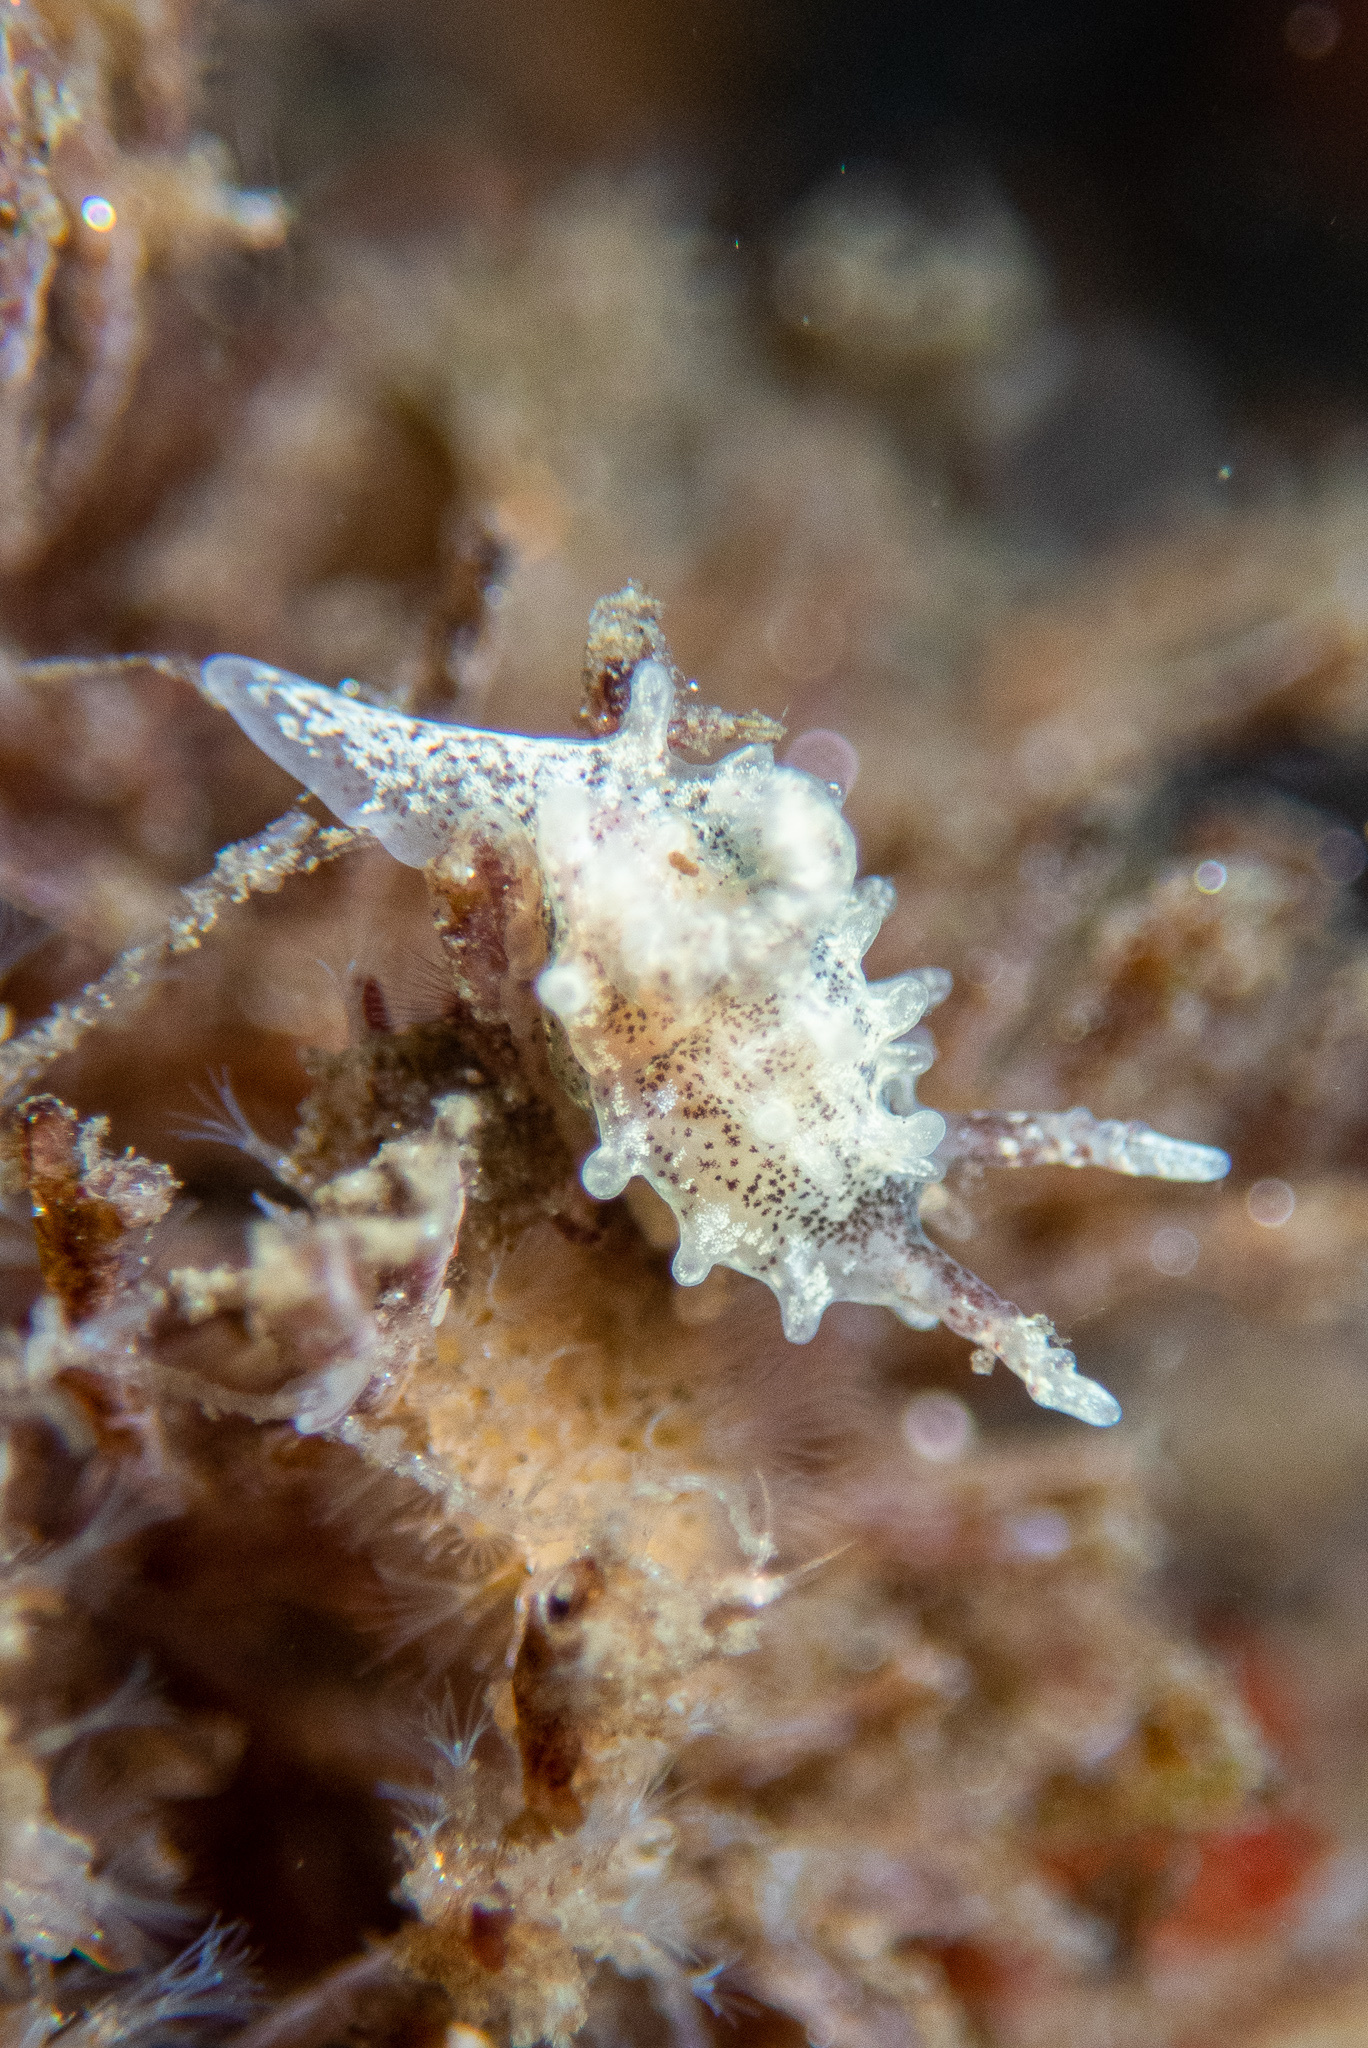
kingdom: Animalia
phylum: Mollusca
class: Gastropoda
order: Nudibranchia
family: Goniodorididae
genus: Okenia
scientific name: Okenia
